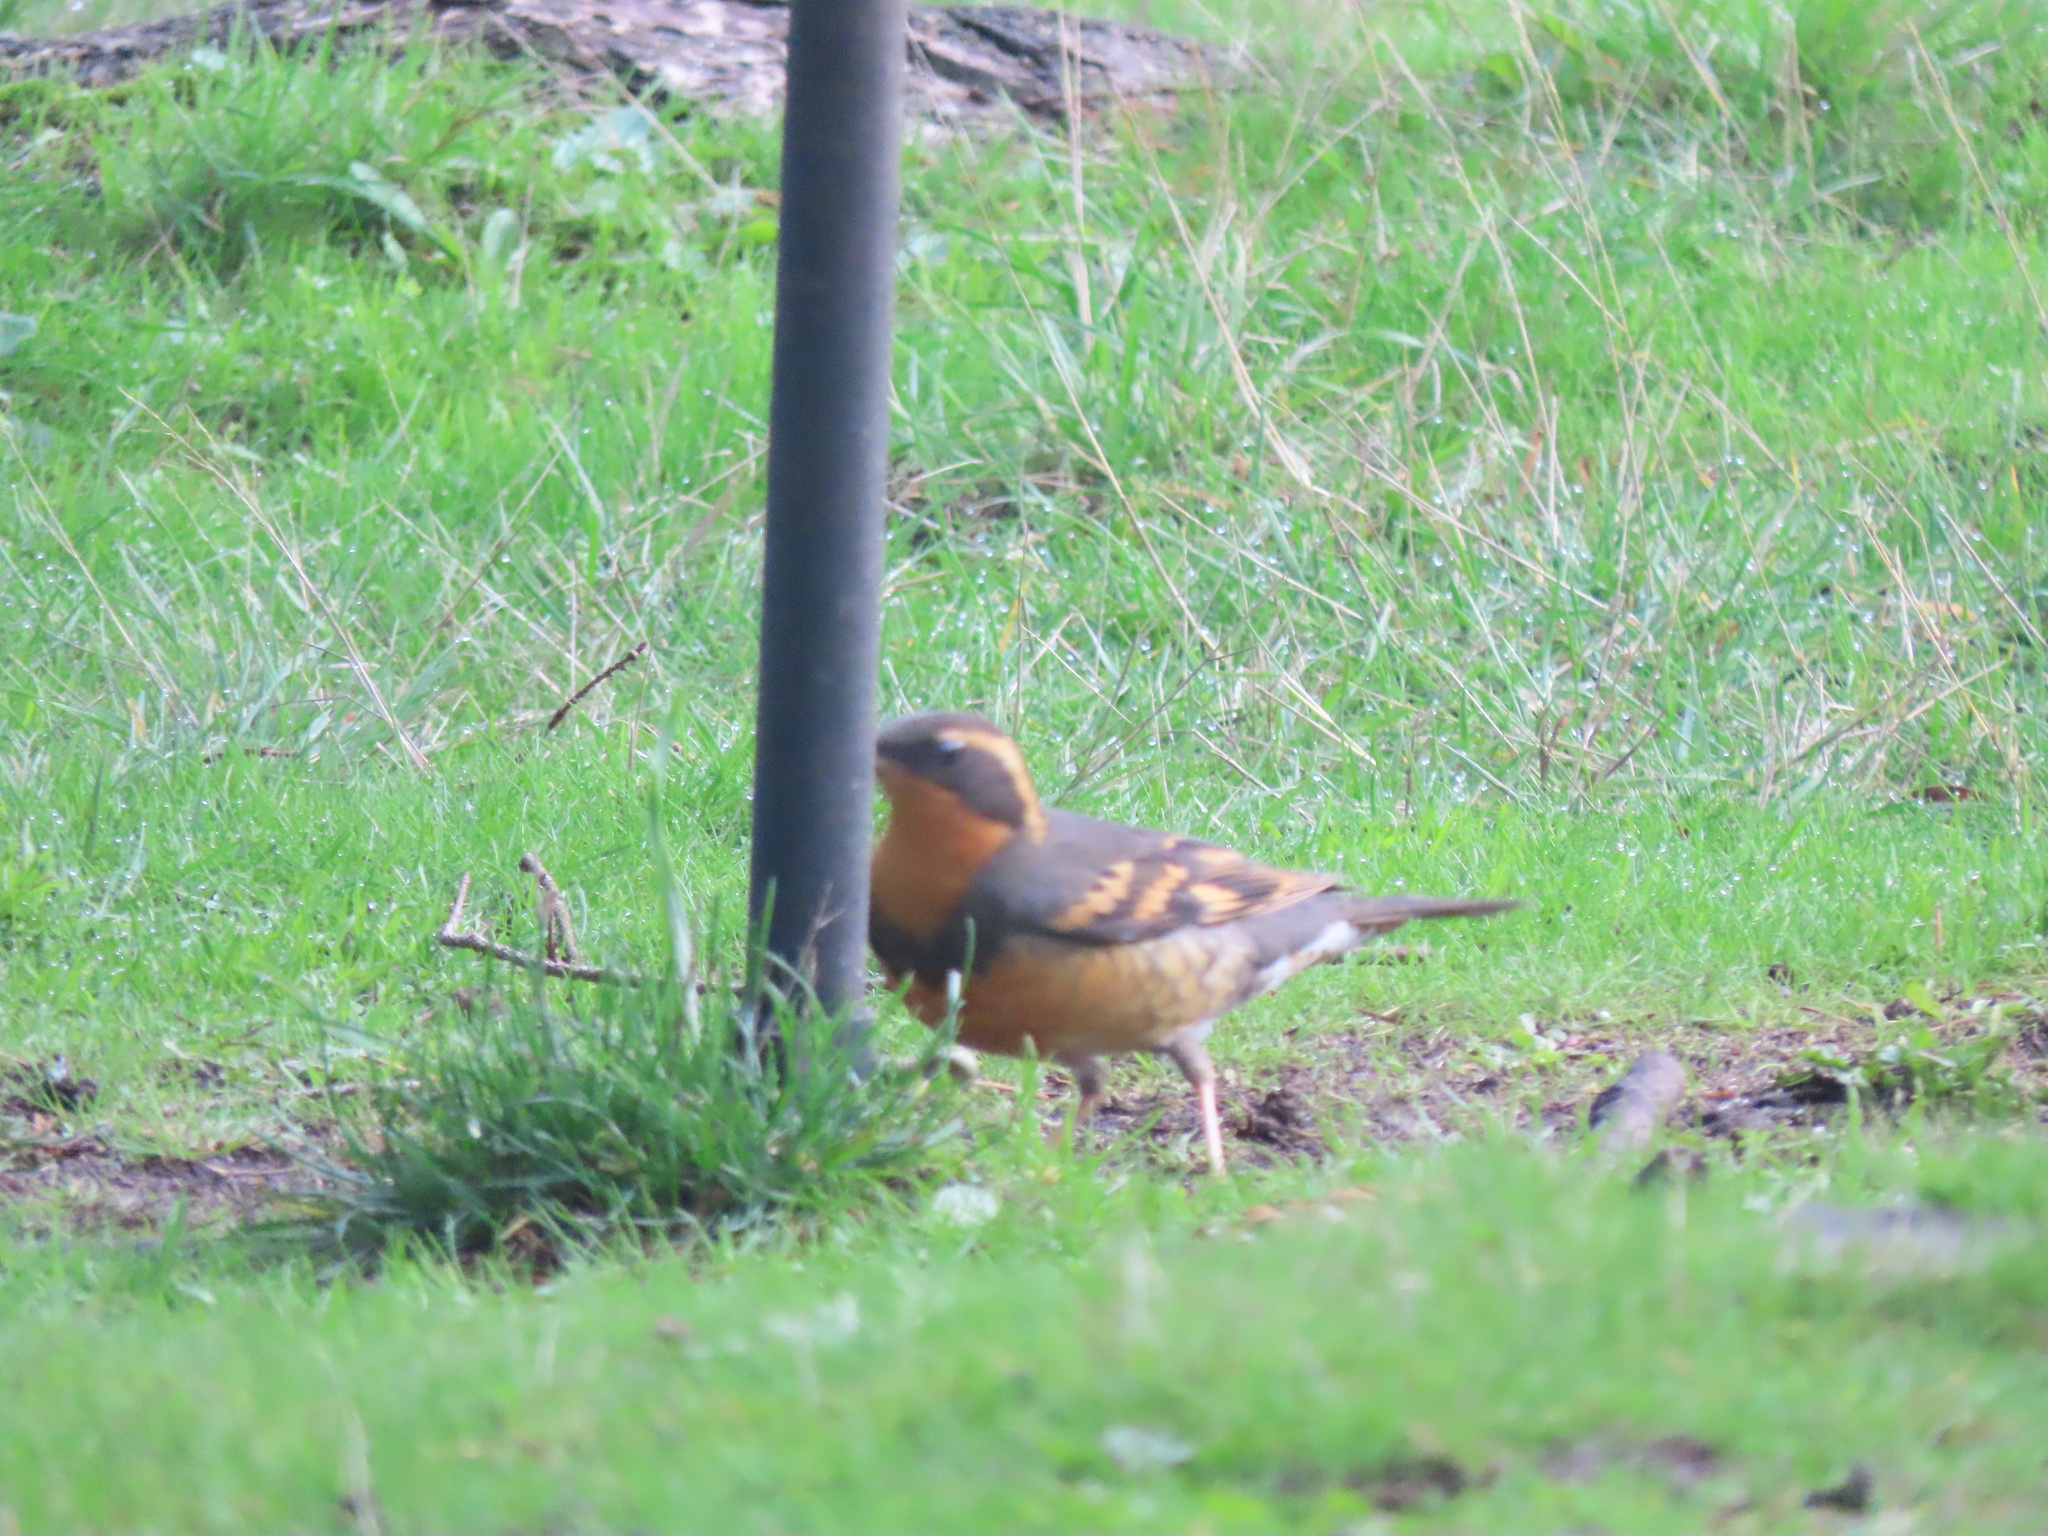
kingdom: Animalia
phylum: Chordata
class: Aves
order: Passeriformes
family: Turdidae
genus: Ixoreus
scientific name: Ixoreus naevius
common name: Varied thrush
